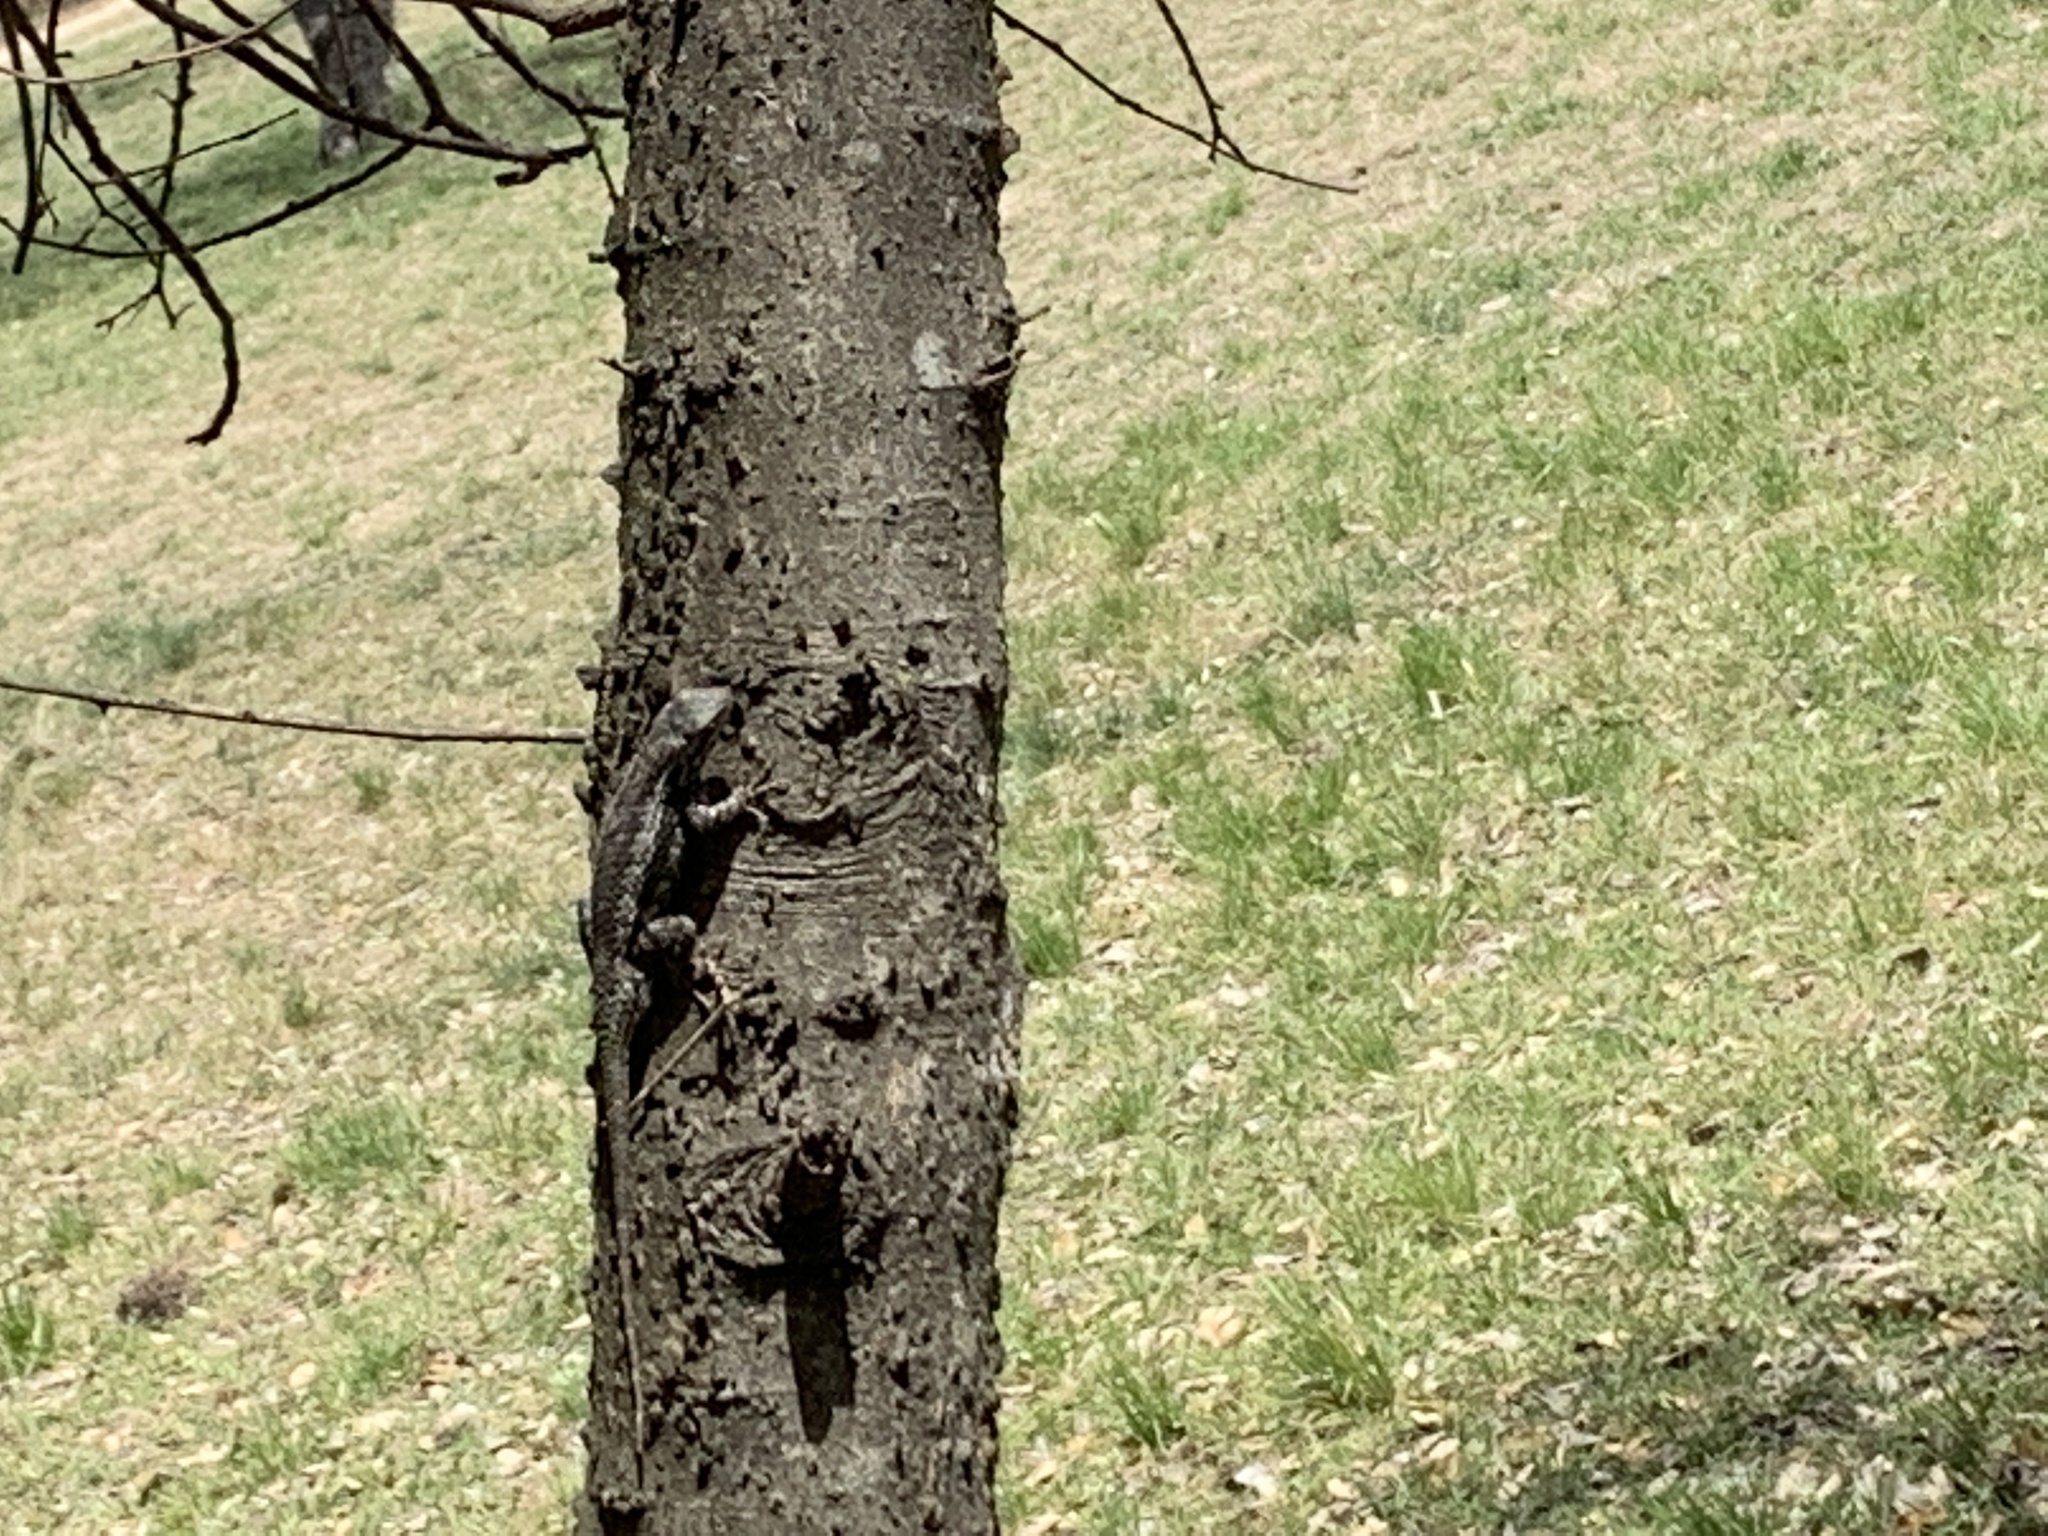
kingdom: Animalia
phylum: Chordata
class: Squamata
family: Phrynosomatidae
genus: Sceloporus
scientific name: Sceloporus olivaceus
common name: Texas spiny lizard
